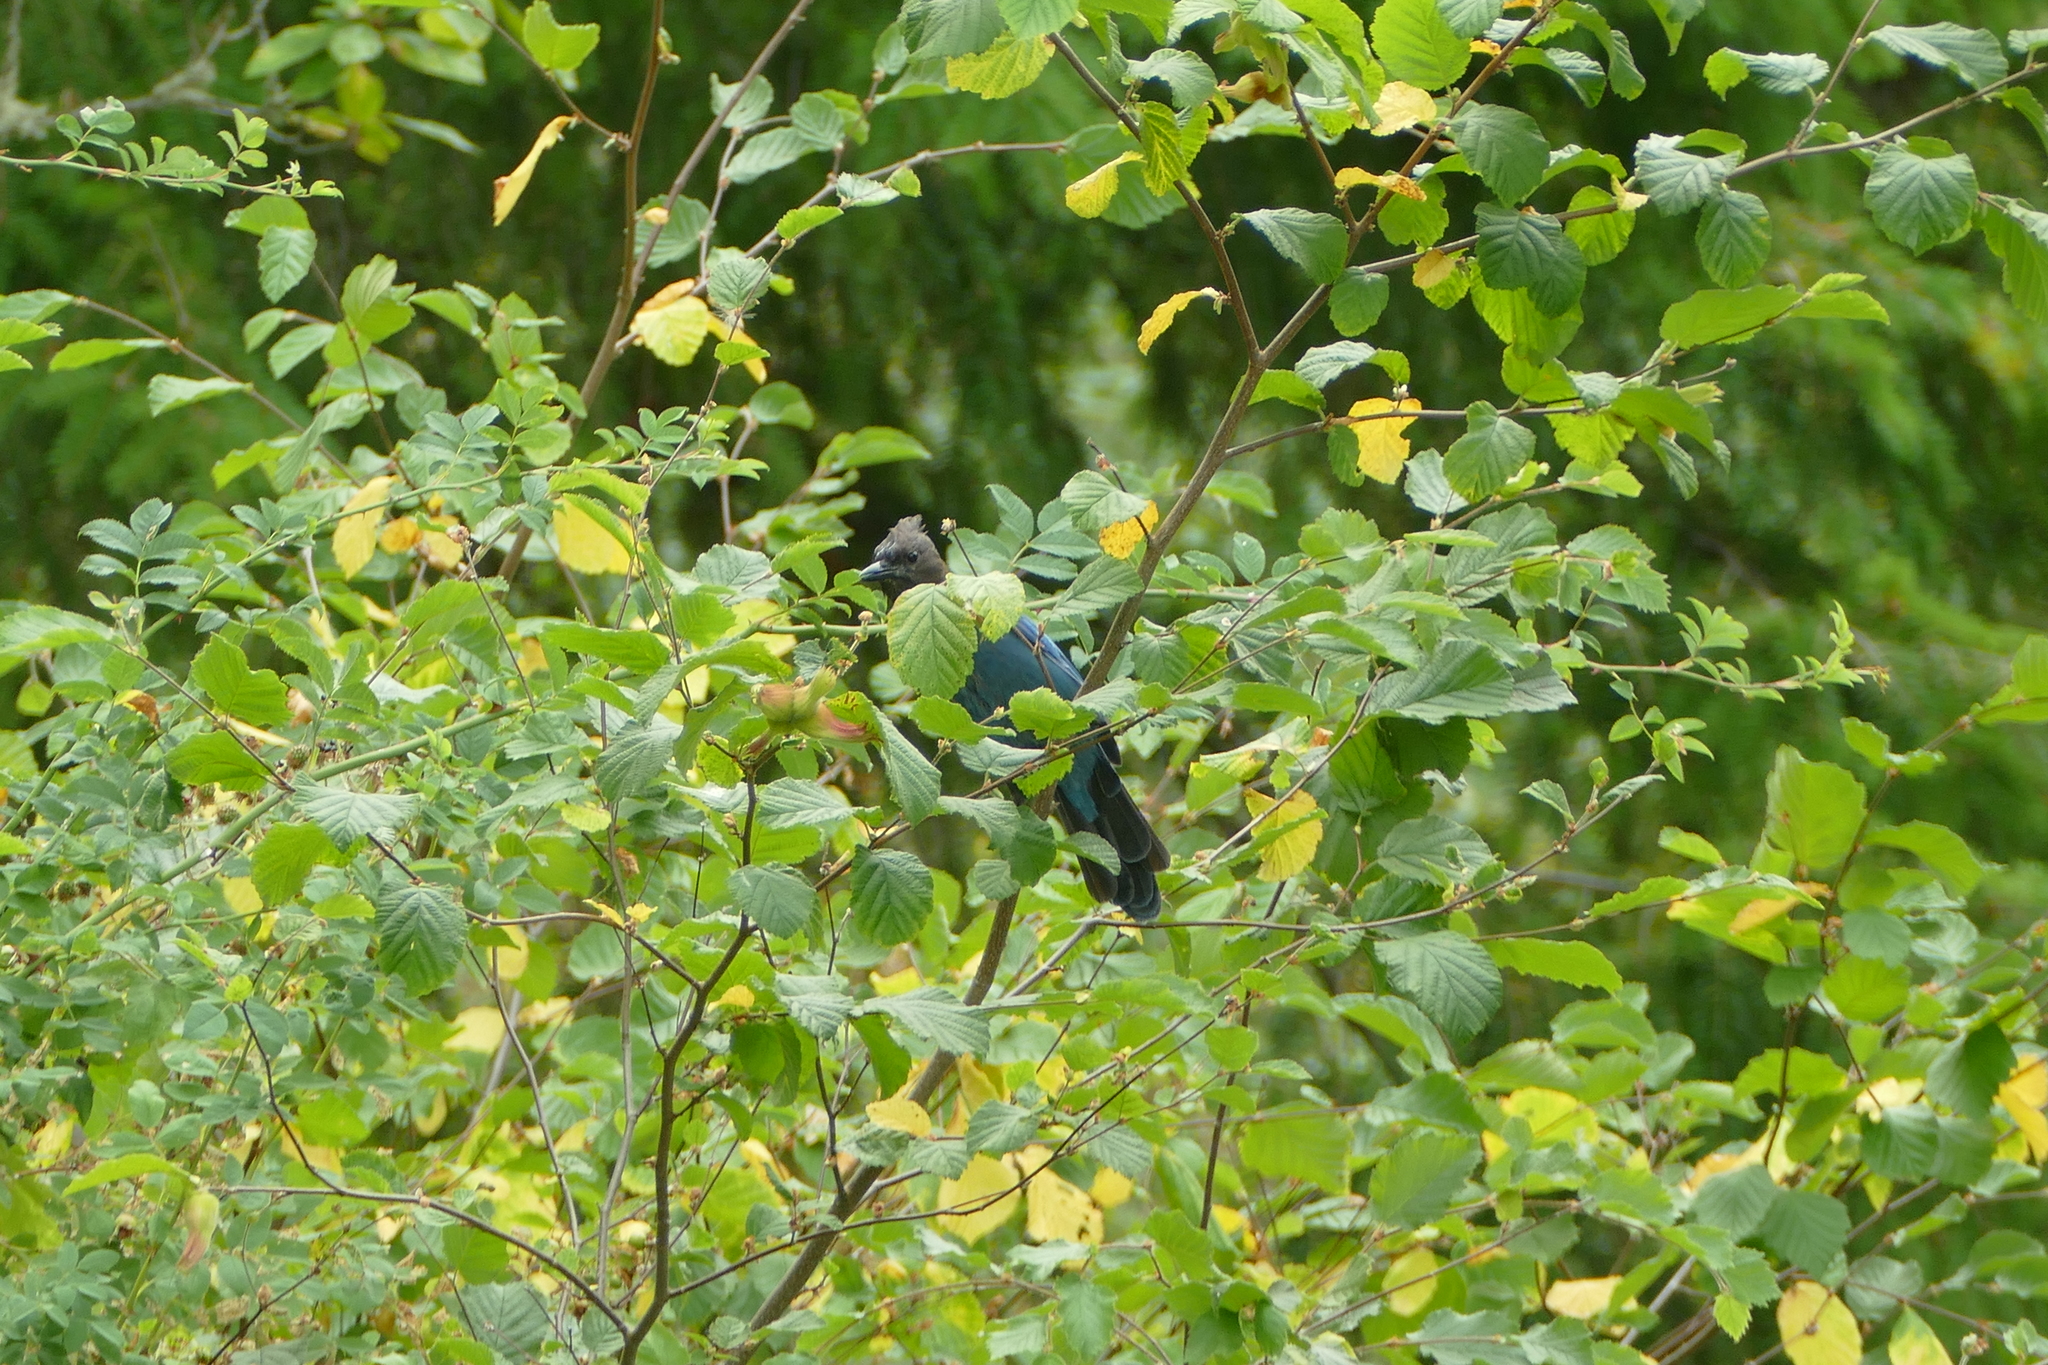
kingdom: Animalia
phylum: Chordata
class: Aves
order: Passeriformes
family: Corvidae
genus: Cyanocitta
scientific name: Cyanocitta stelleri
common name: Steller's jay
